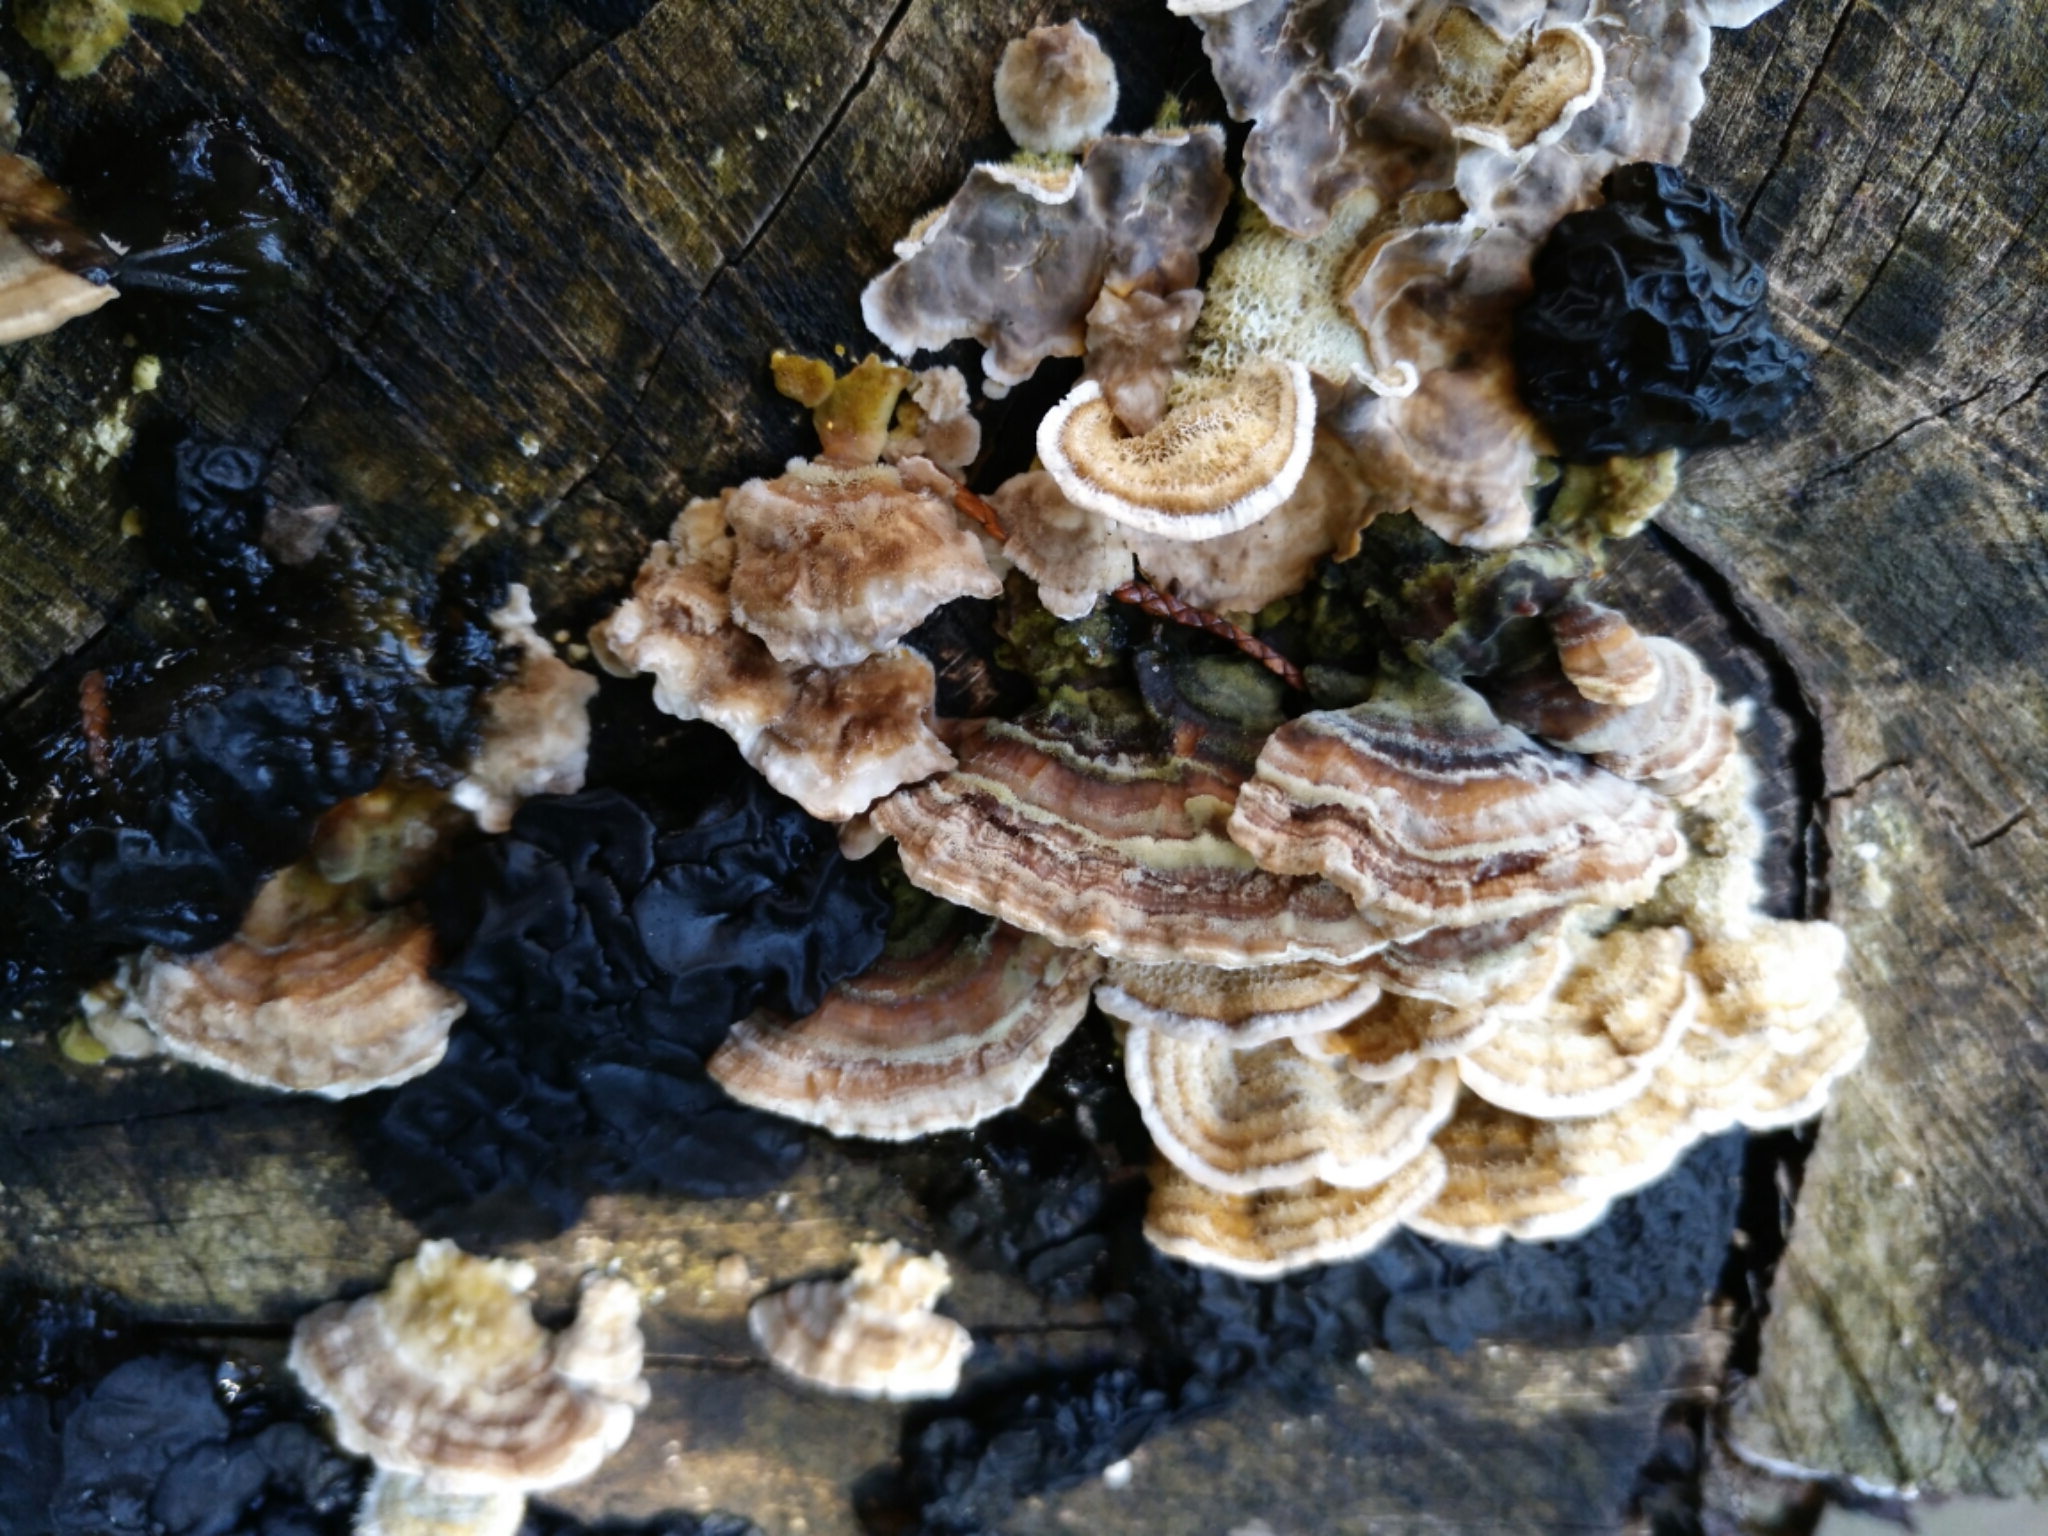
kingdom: Fungi
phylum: Basidiomycota
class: Agaricomycetes
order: Polyporales
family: Polyporaceae
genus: Trametes
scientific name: Trametes versicolor
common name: Turkeytail
